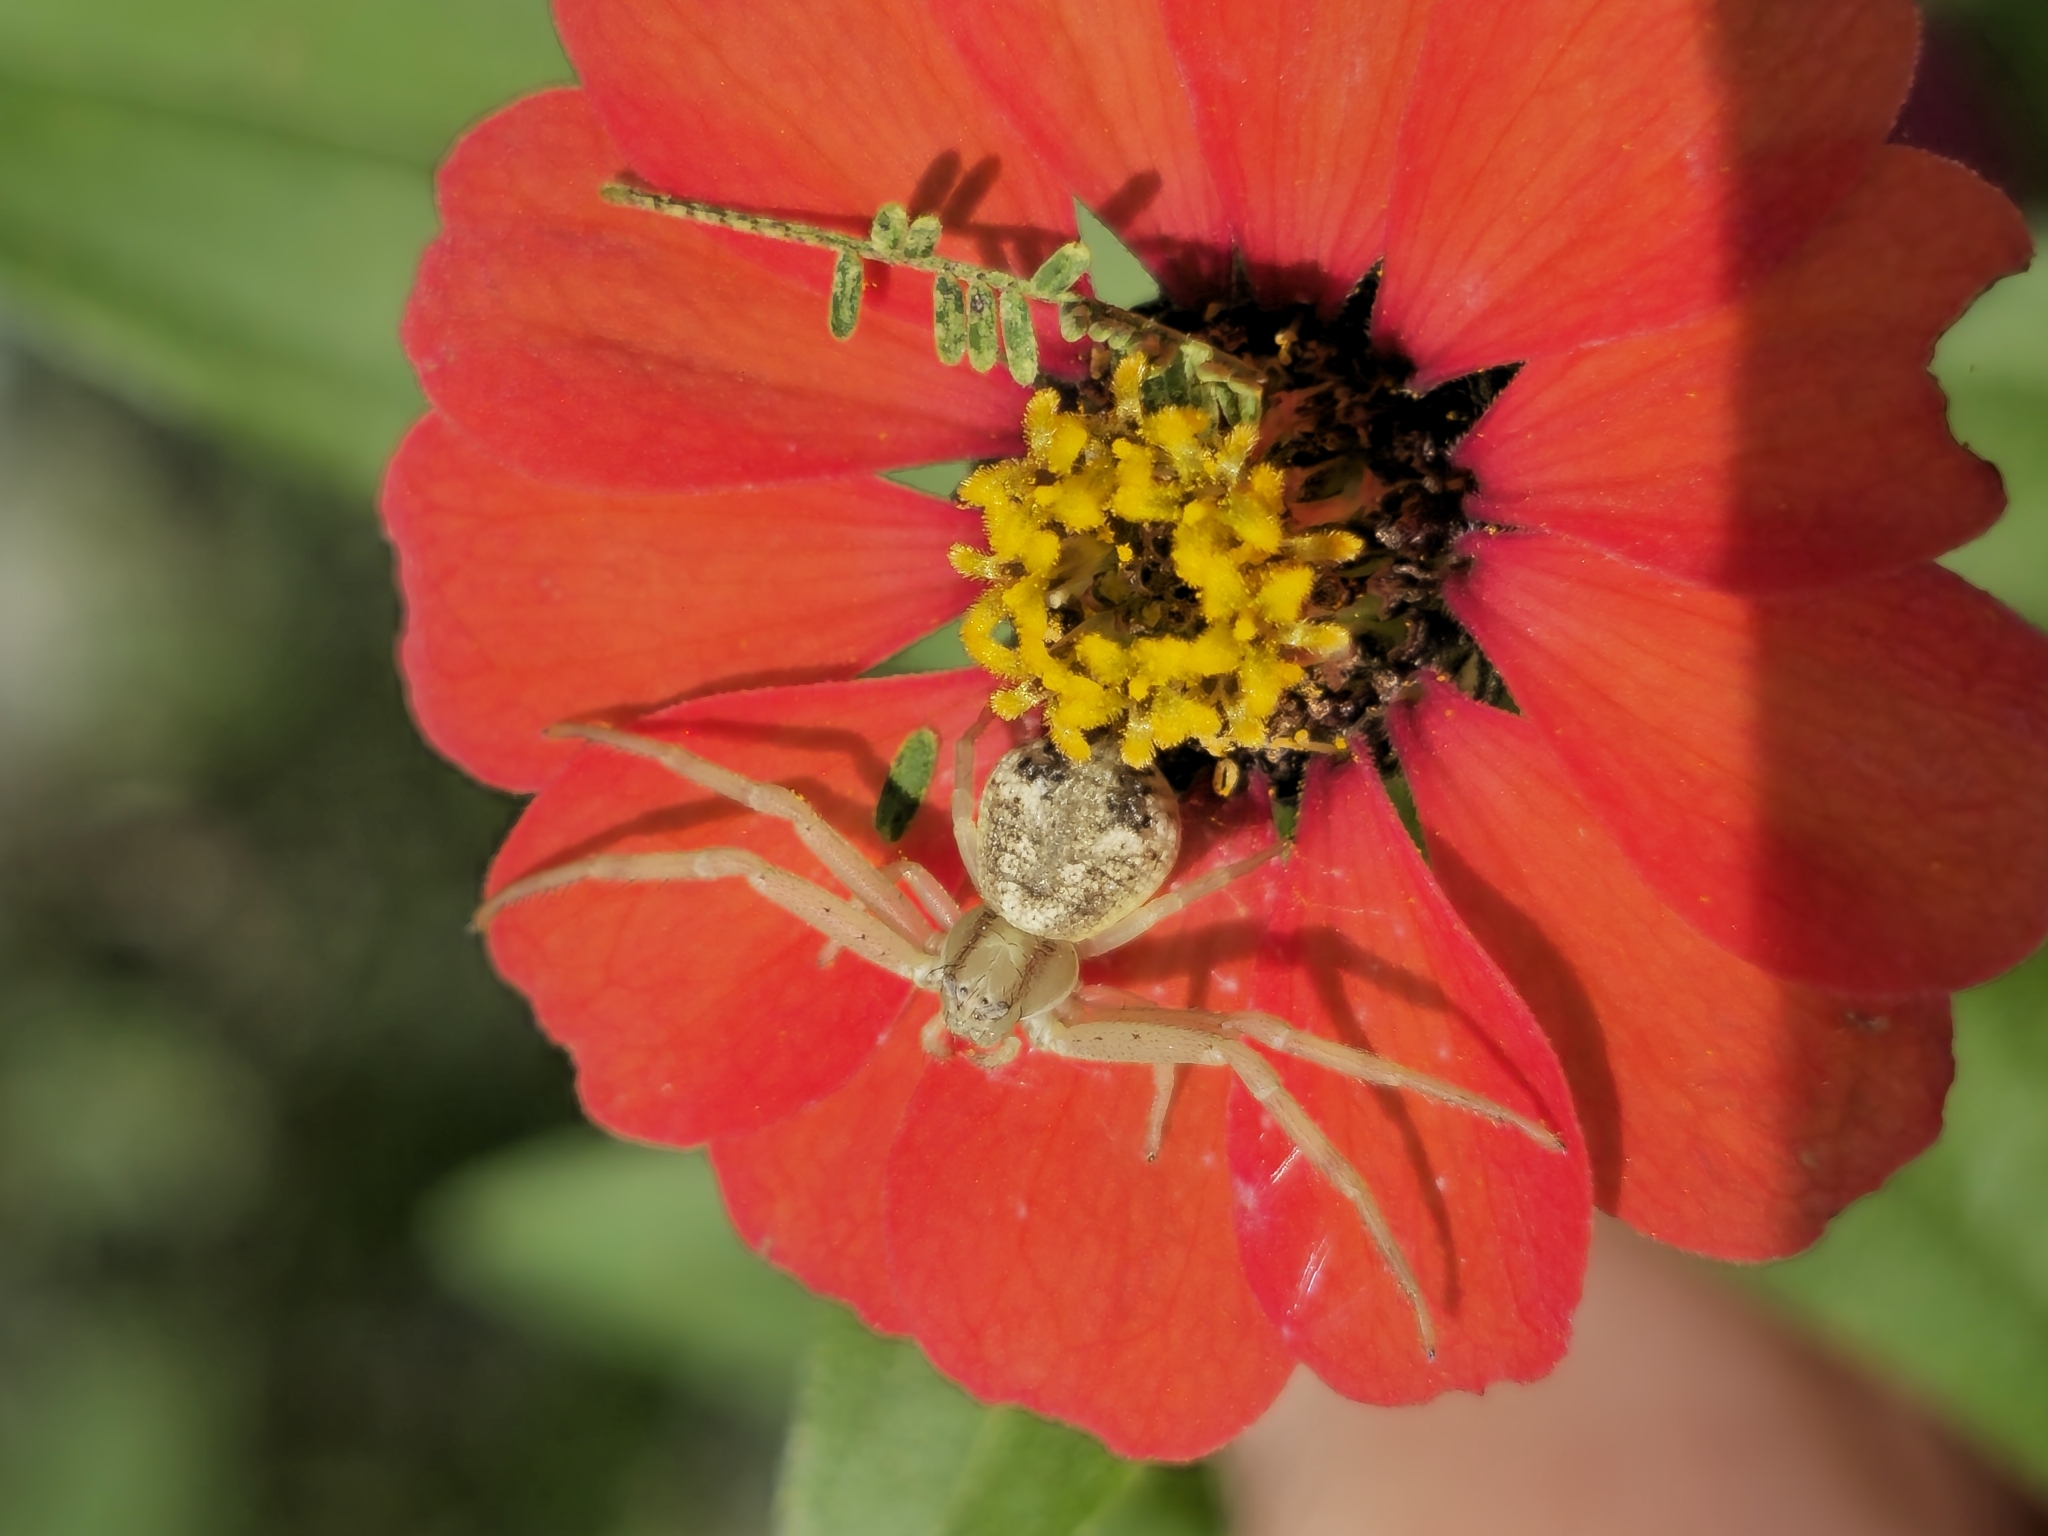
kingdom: Animalia
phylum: Arthropoda
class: Arachnida
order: Araneae
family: Thomisidae
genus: Misumenops
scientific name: Misumenops
